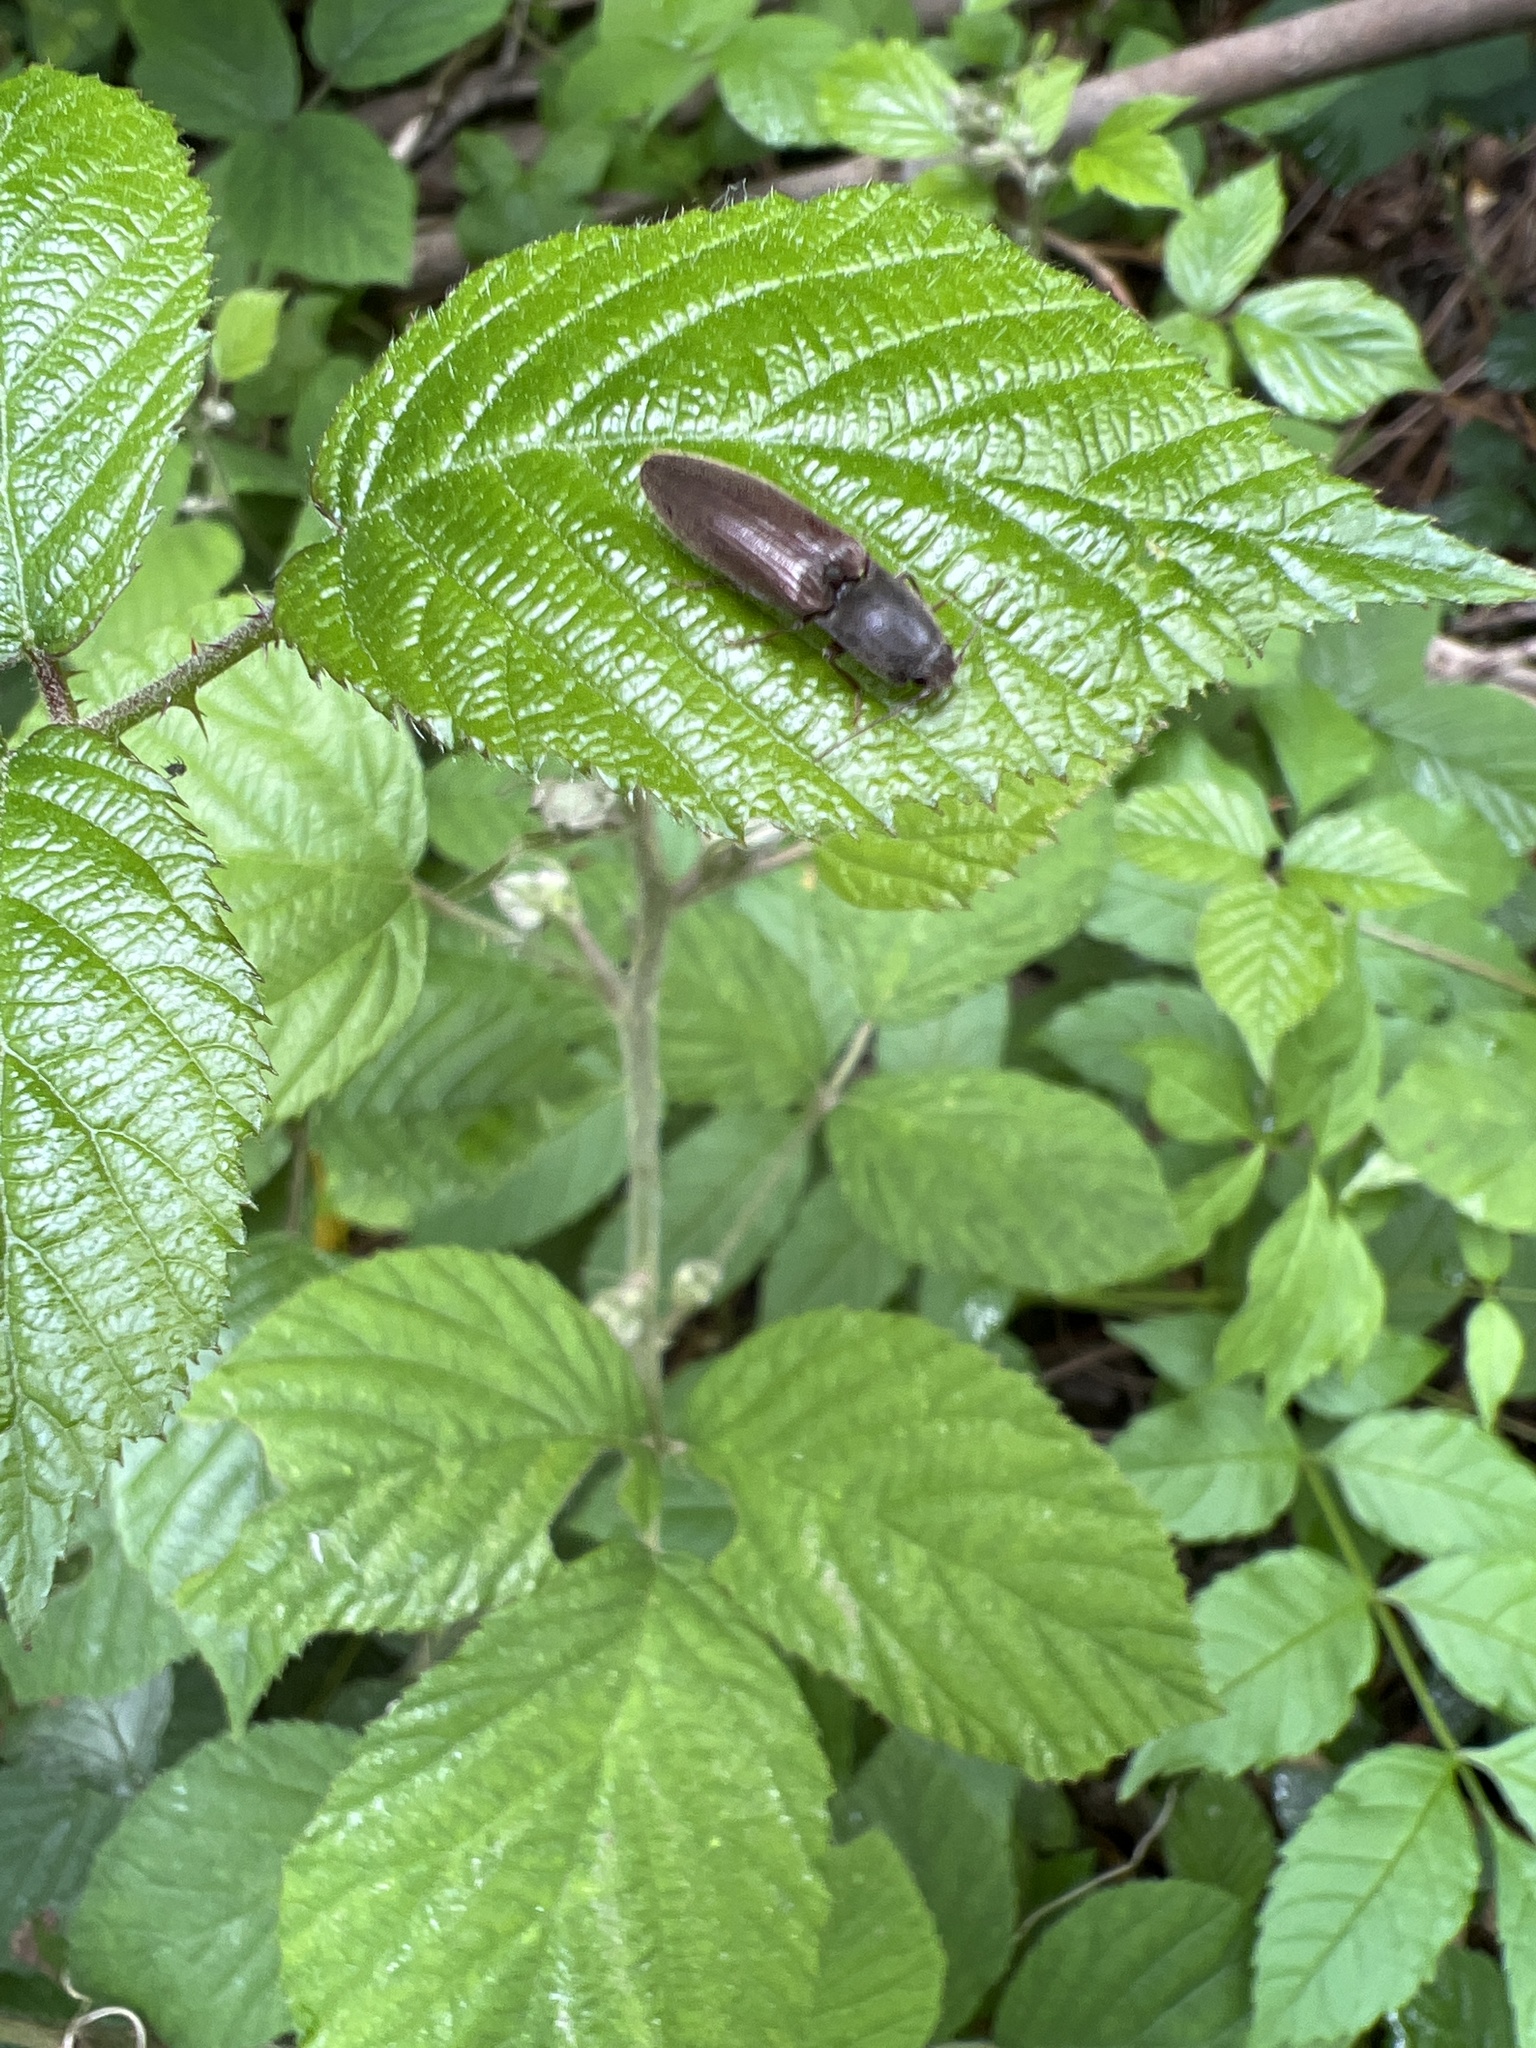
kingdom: Animalia
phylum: Arthropoda
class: Insecta
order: Coleoptera
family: Elateridae
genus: Athous
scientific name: Athous haemorrhoidalis
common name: Red-brown click beetle
